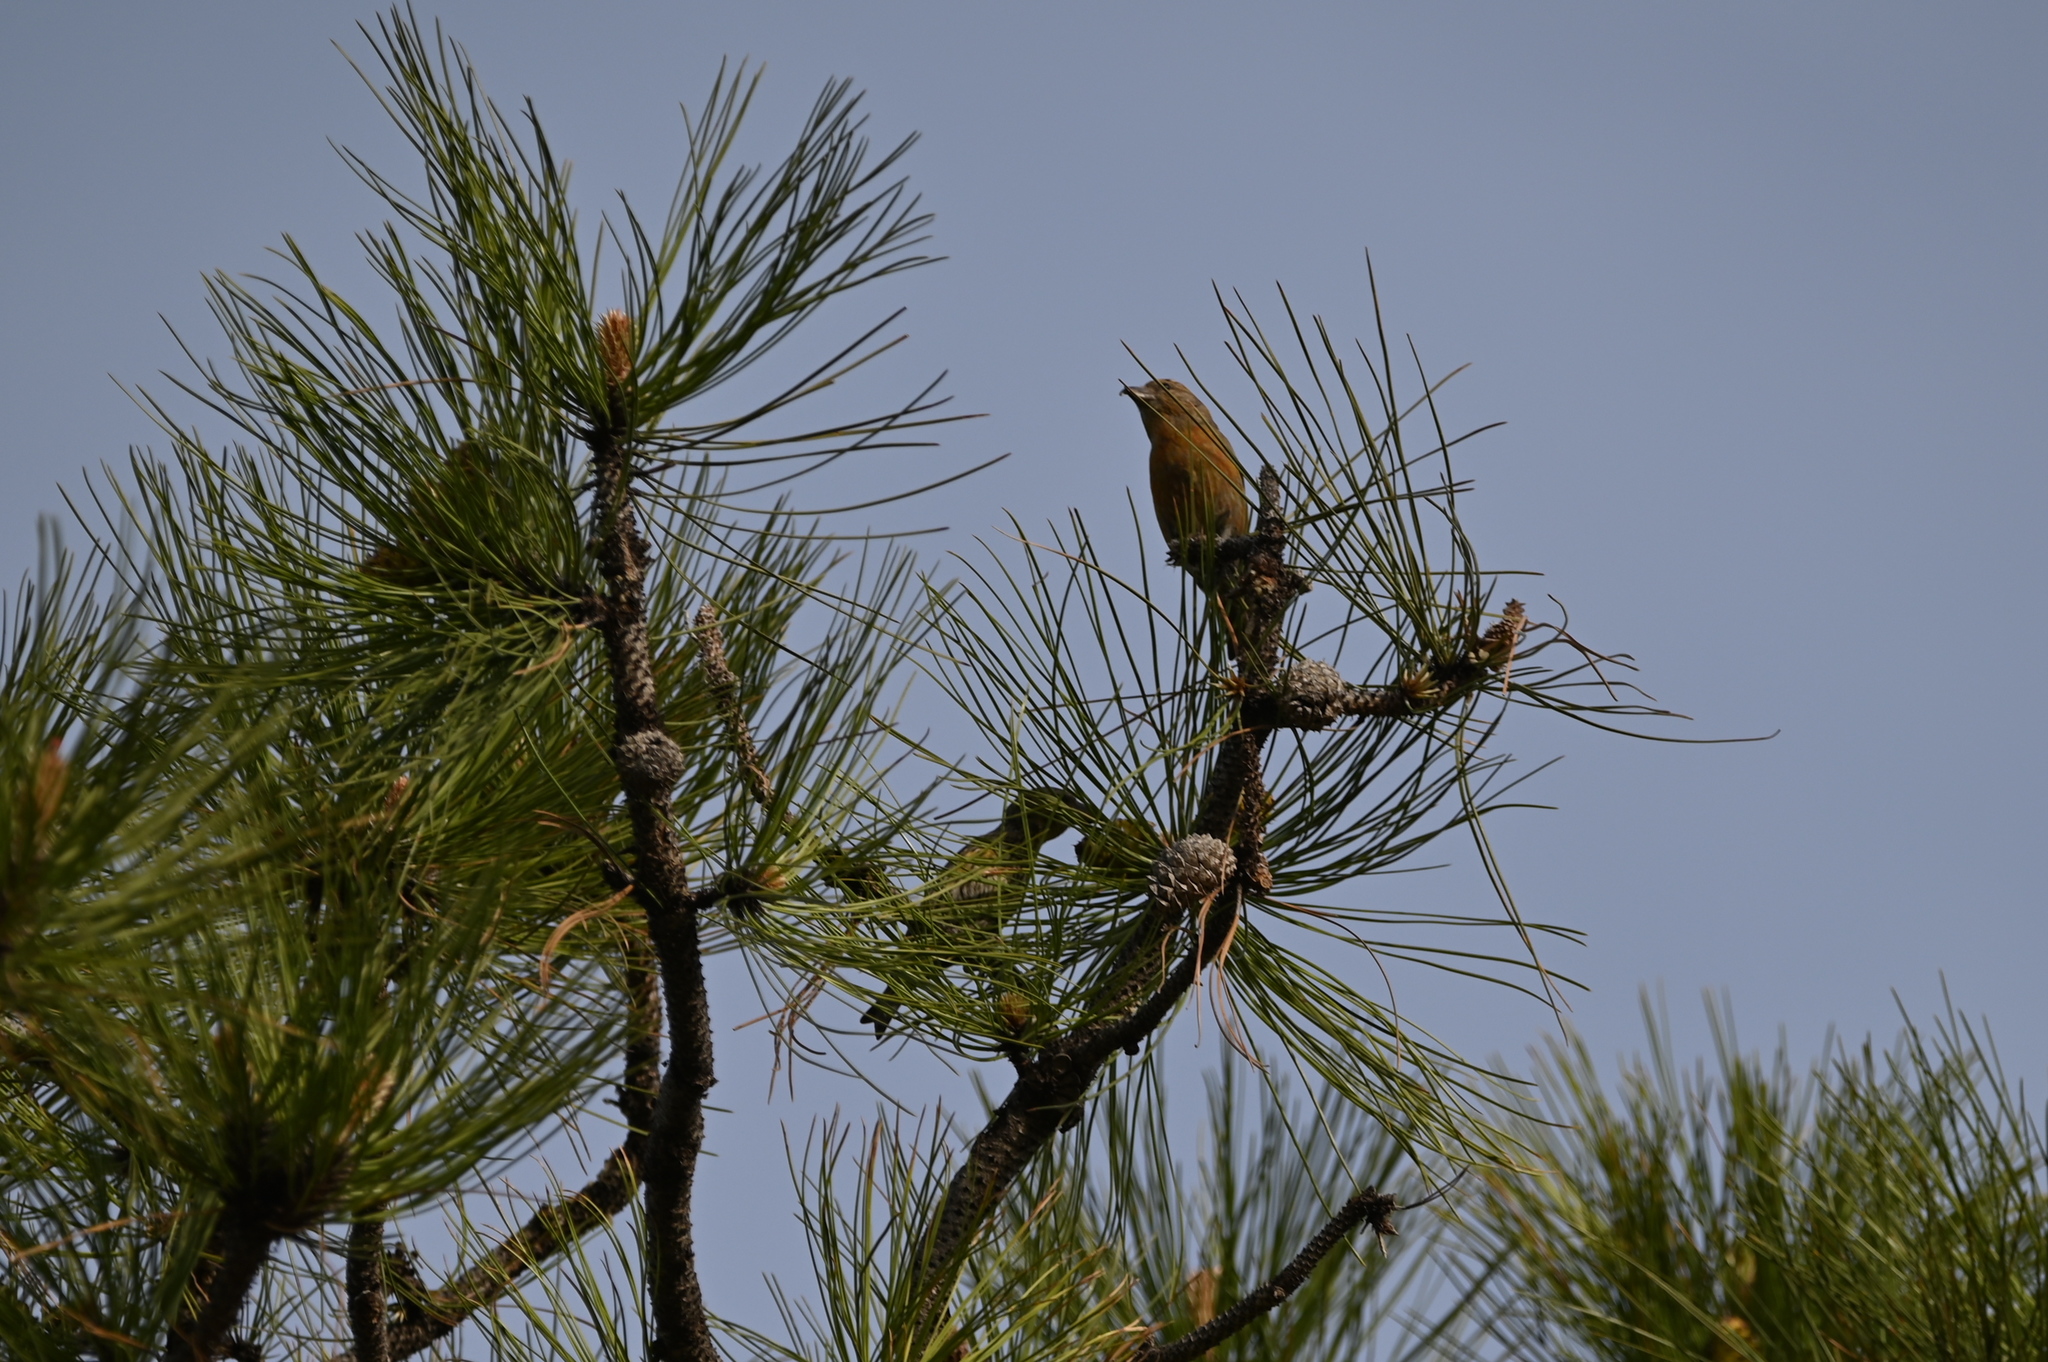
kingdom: Animalia
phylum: Chordata
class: Aves
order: Passeriformes
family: Fringillidae
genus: Loxia
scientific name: Loxia curvirostra
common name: Red crossbill
